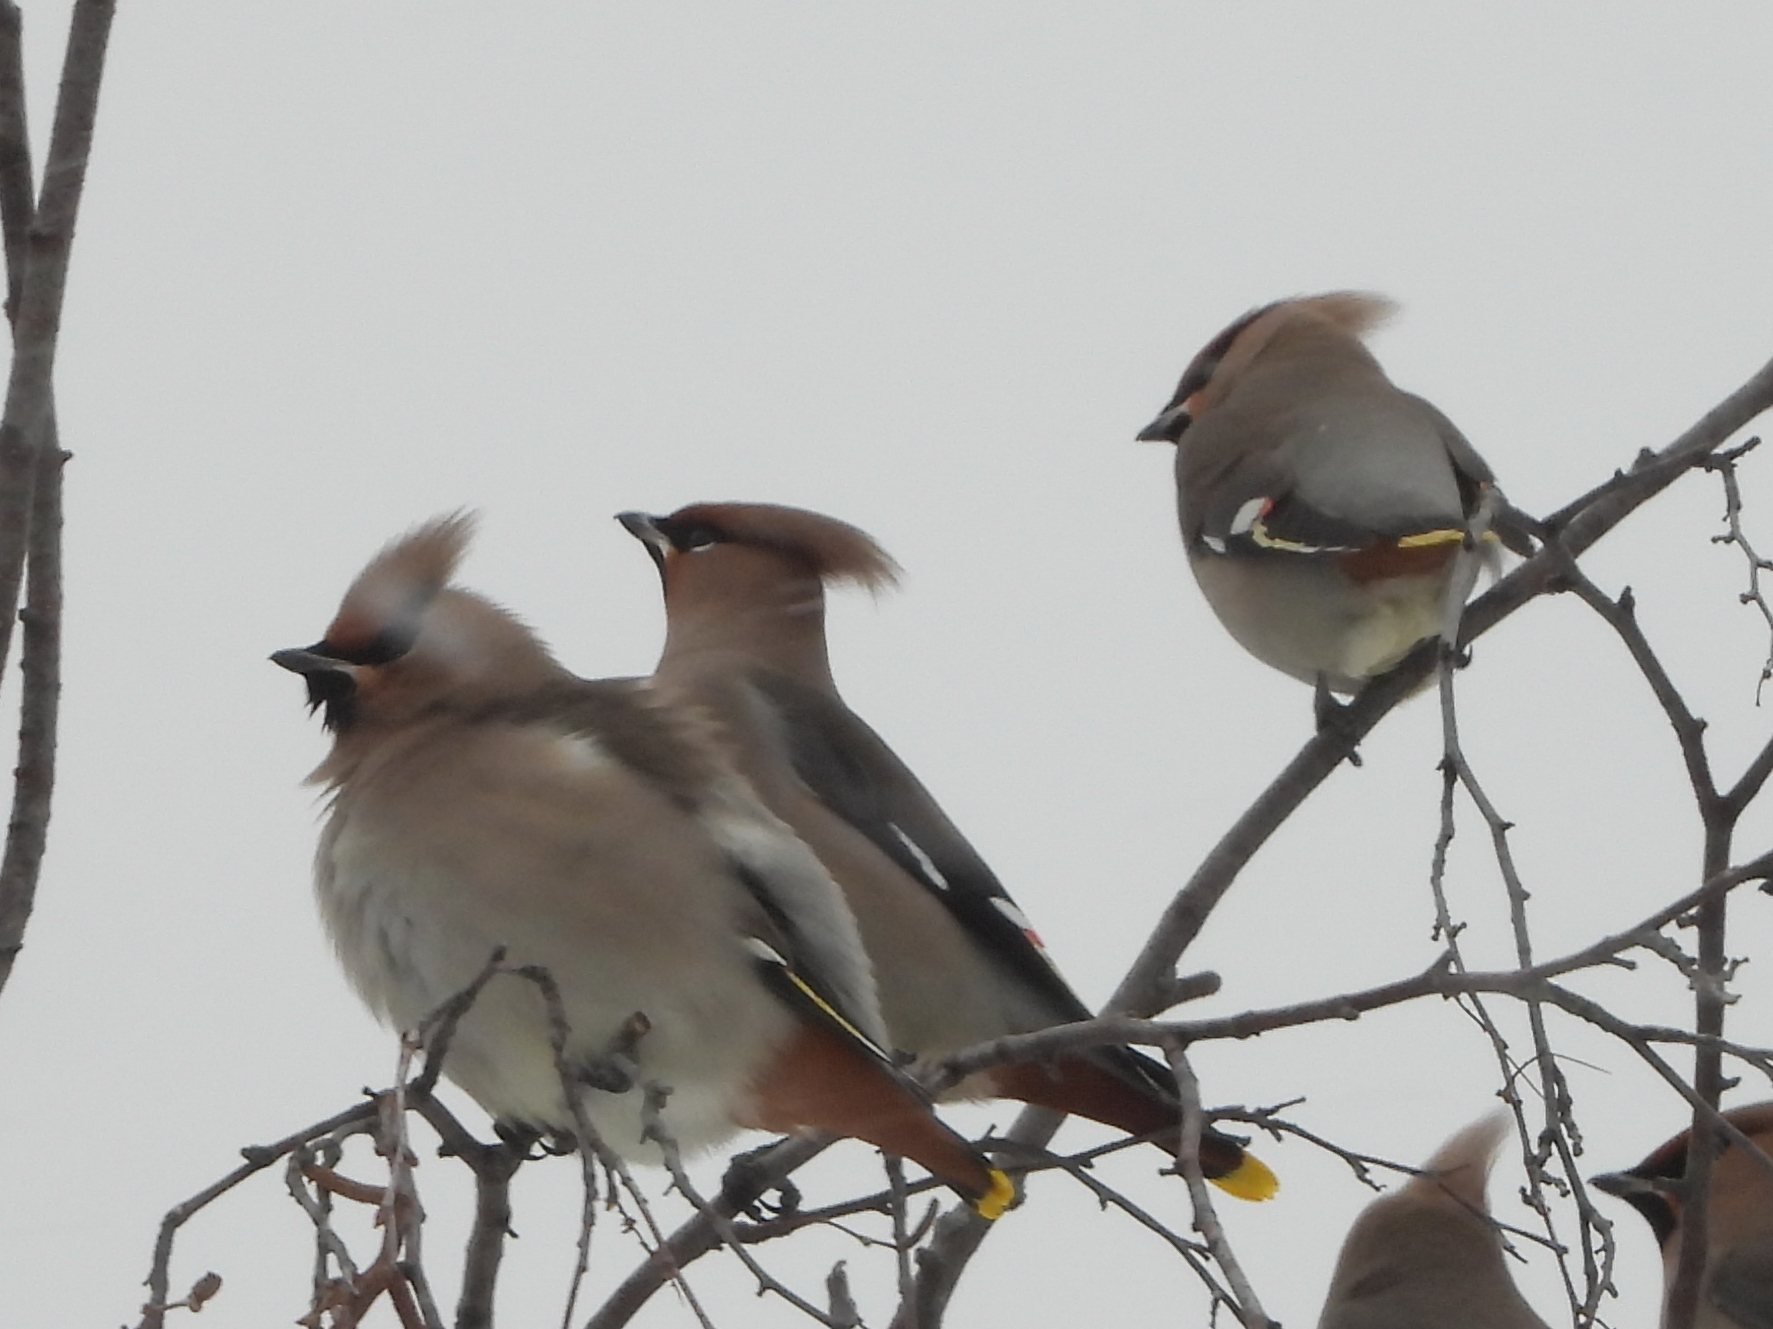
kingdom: Animalia
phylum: Chordata
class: Aves
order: Passeriformes
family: Bombycillidae
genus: Bombycilla
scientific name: Bombycilla garrulus
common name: Bohemian waxwing
